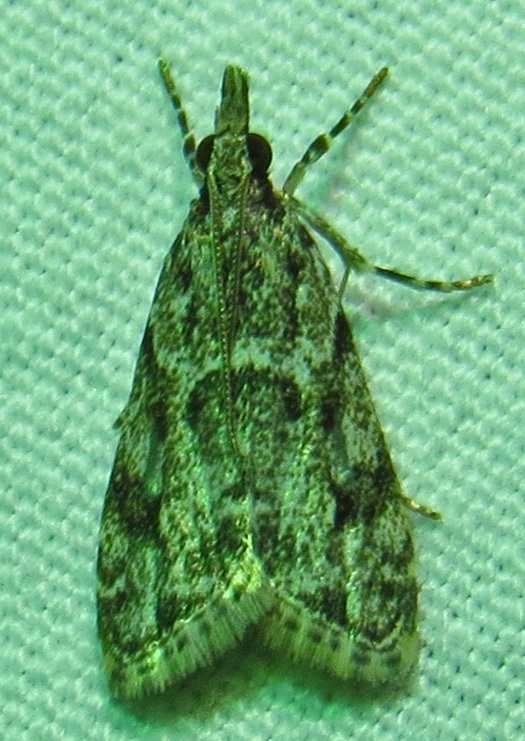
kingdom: Animalia
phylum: Arthropoda
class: Insecta
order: Lepidoptera
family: Crambidae
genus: Eudonia
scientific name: Eudonia heterosalis
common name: Mcdunnough's eudonia
